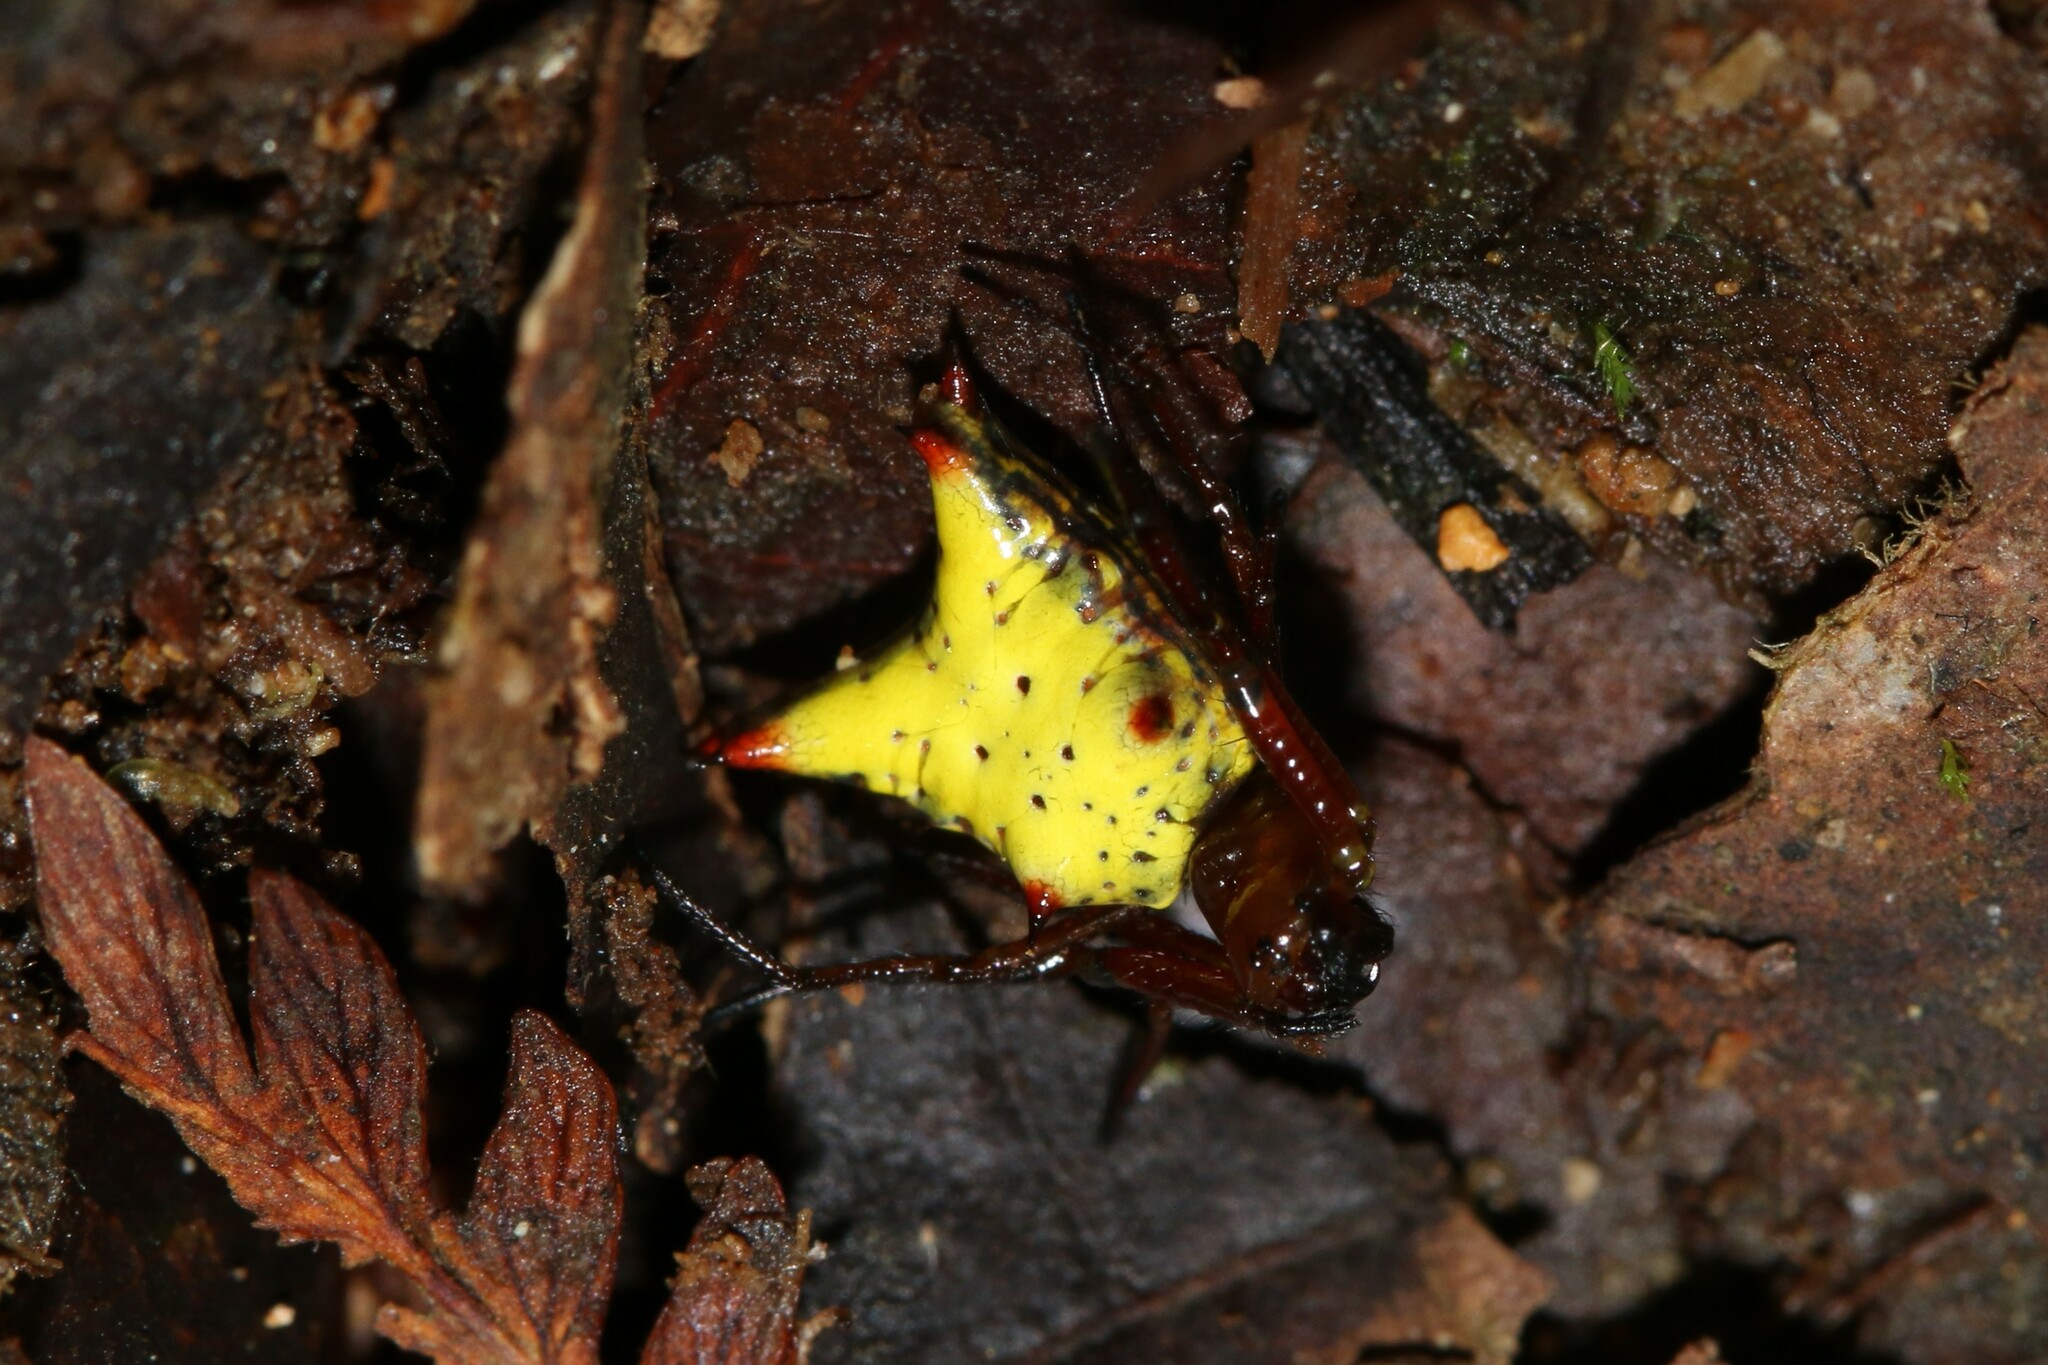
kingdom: Animalia
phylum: Arthropoda
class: Arachnida
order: Araneae
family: Araneidae
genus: Micrathena
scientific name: Micrathena crassa
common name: Orb weavers
